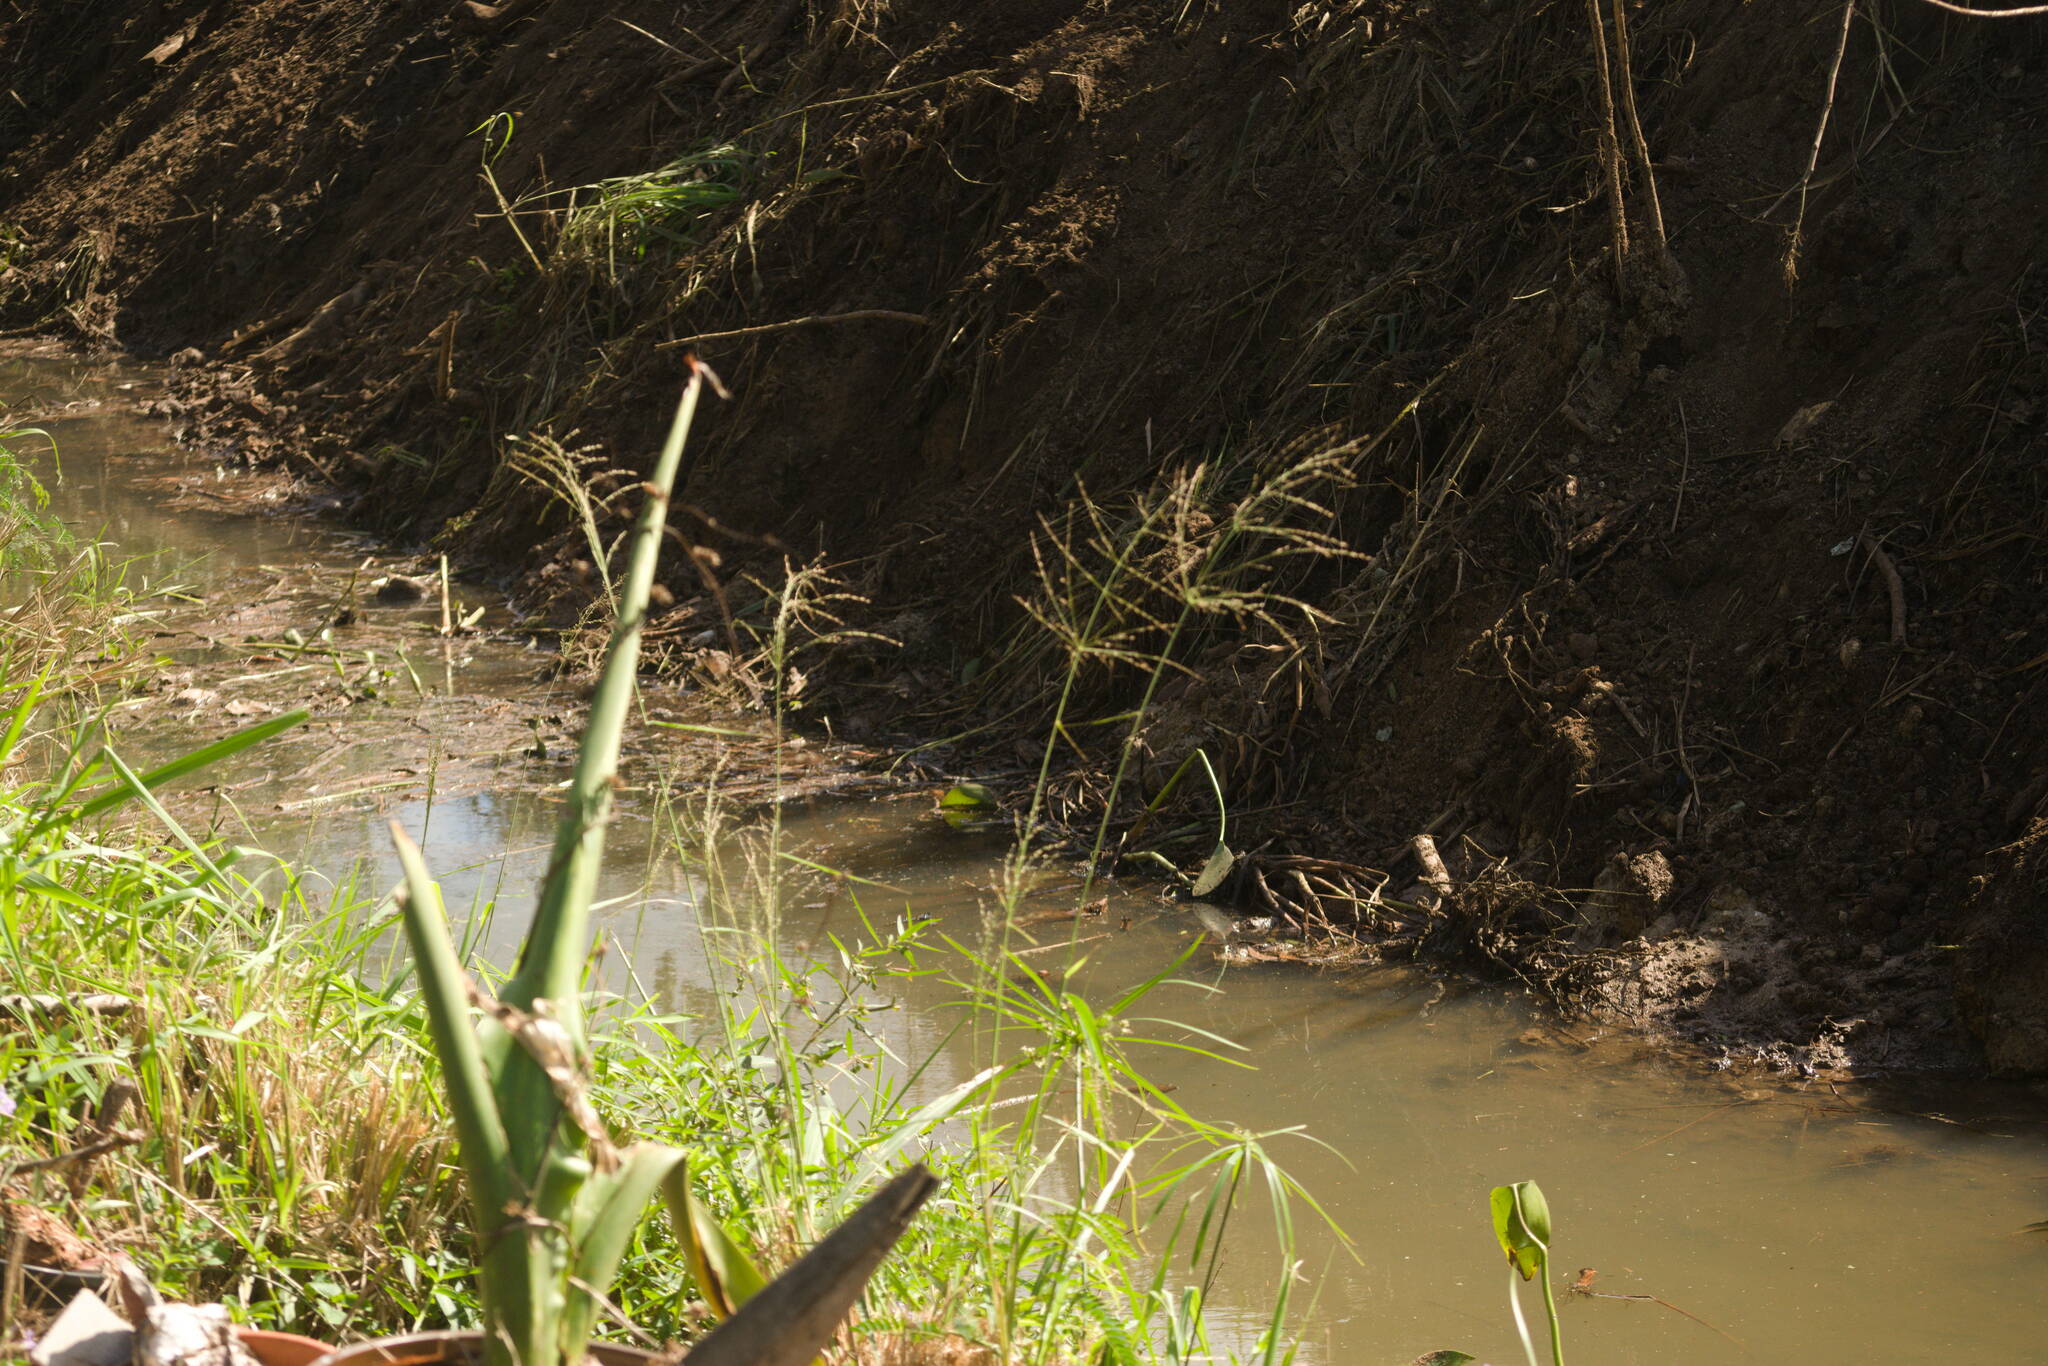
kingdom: Plantae
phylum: Tracheophyta
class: Liliopsida
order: Poales
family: Poaceae
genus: Megathyrsus
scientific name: Megathyrsus maximus
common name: Guineagrass
